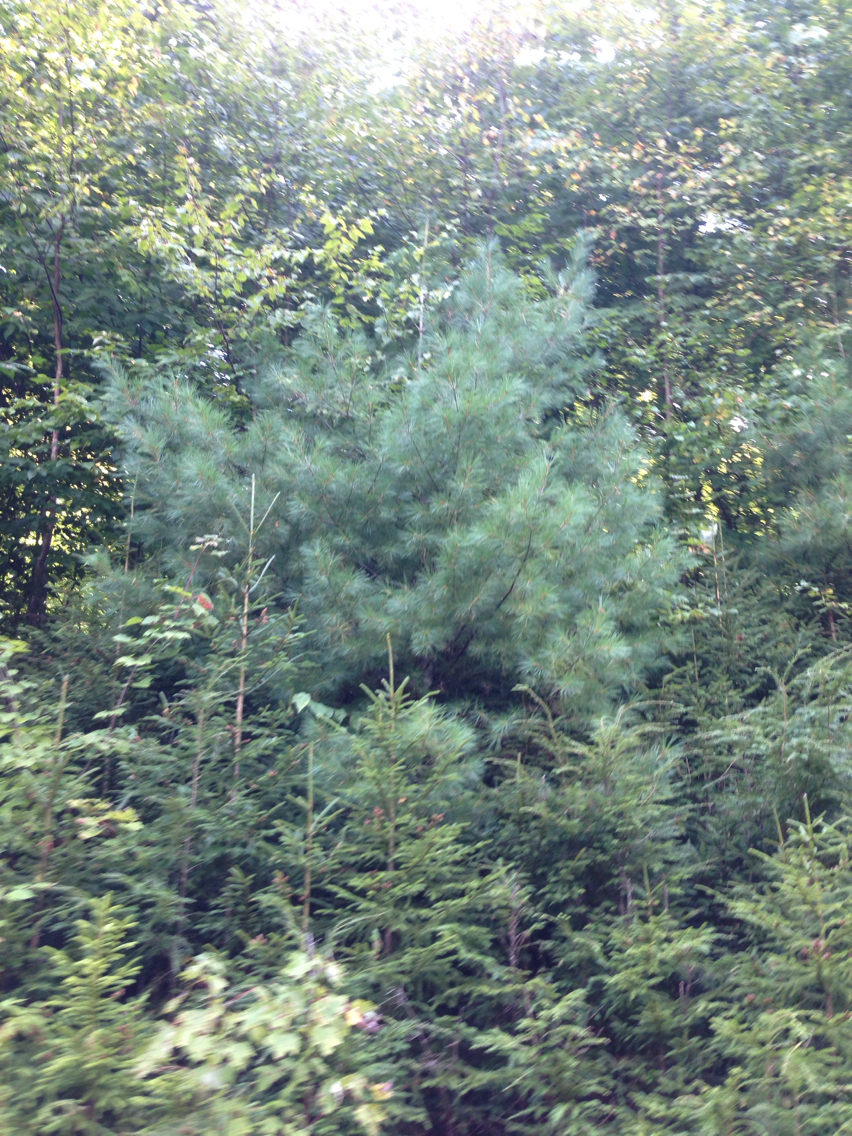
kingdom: Plantae
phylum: Tracheophyta
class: Pinopsida
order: Pinales
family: Pinaceae
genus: Pinus
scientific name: Pinus strobus
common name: Weymouth pine
